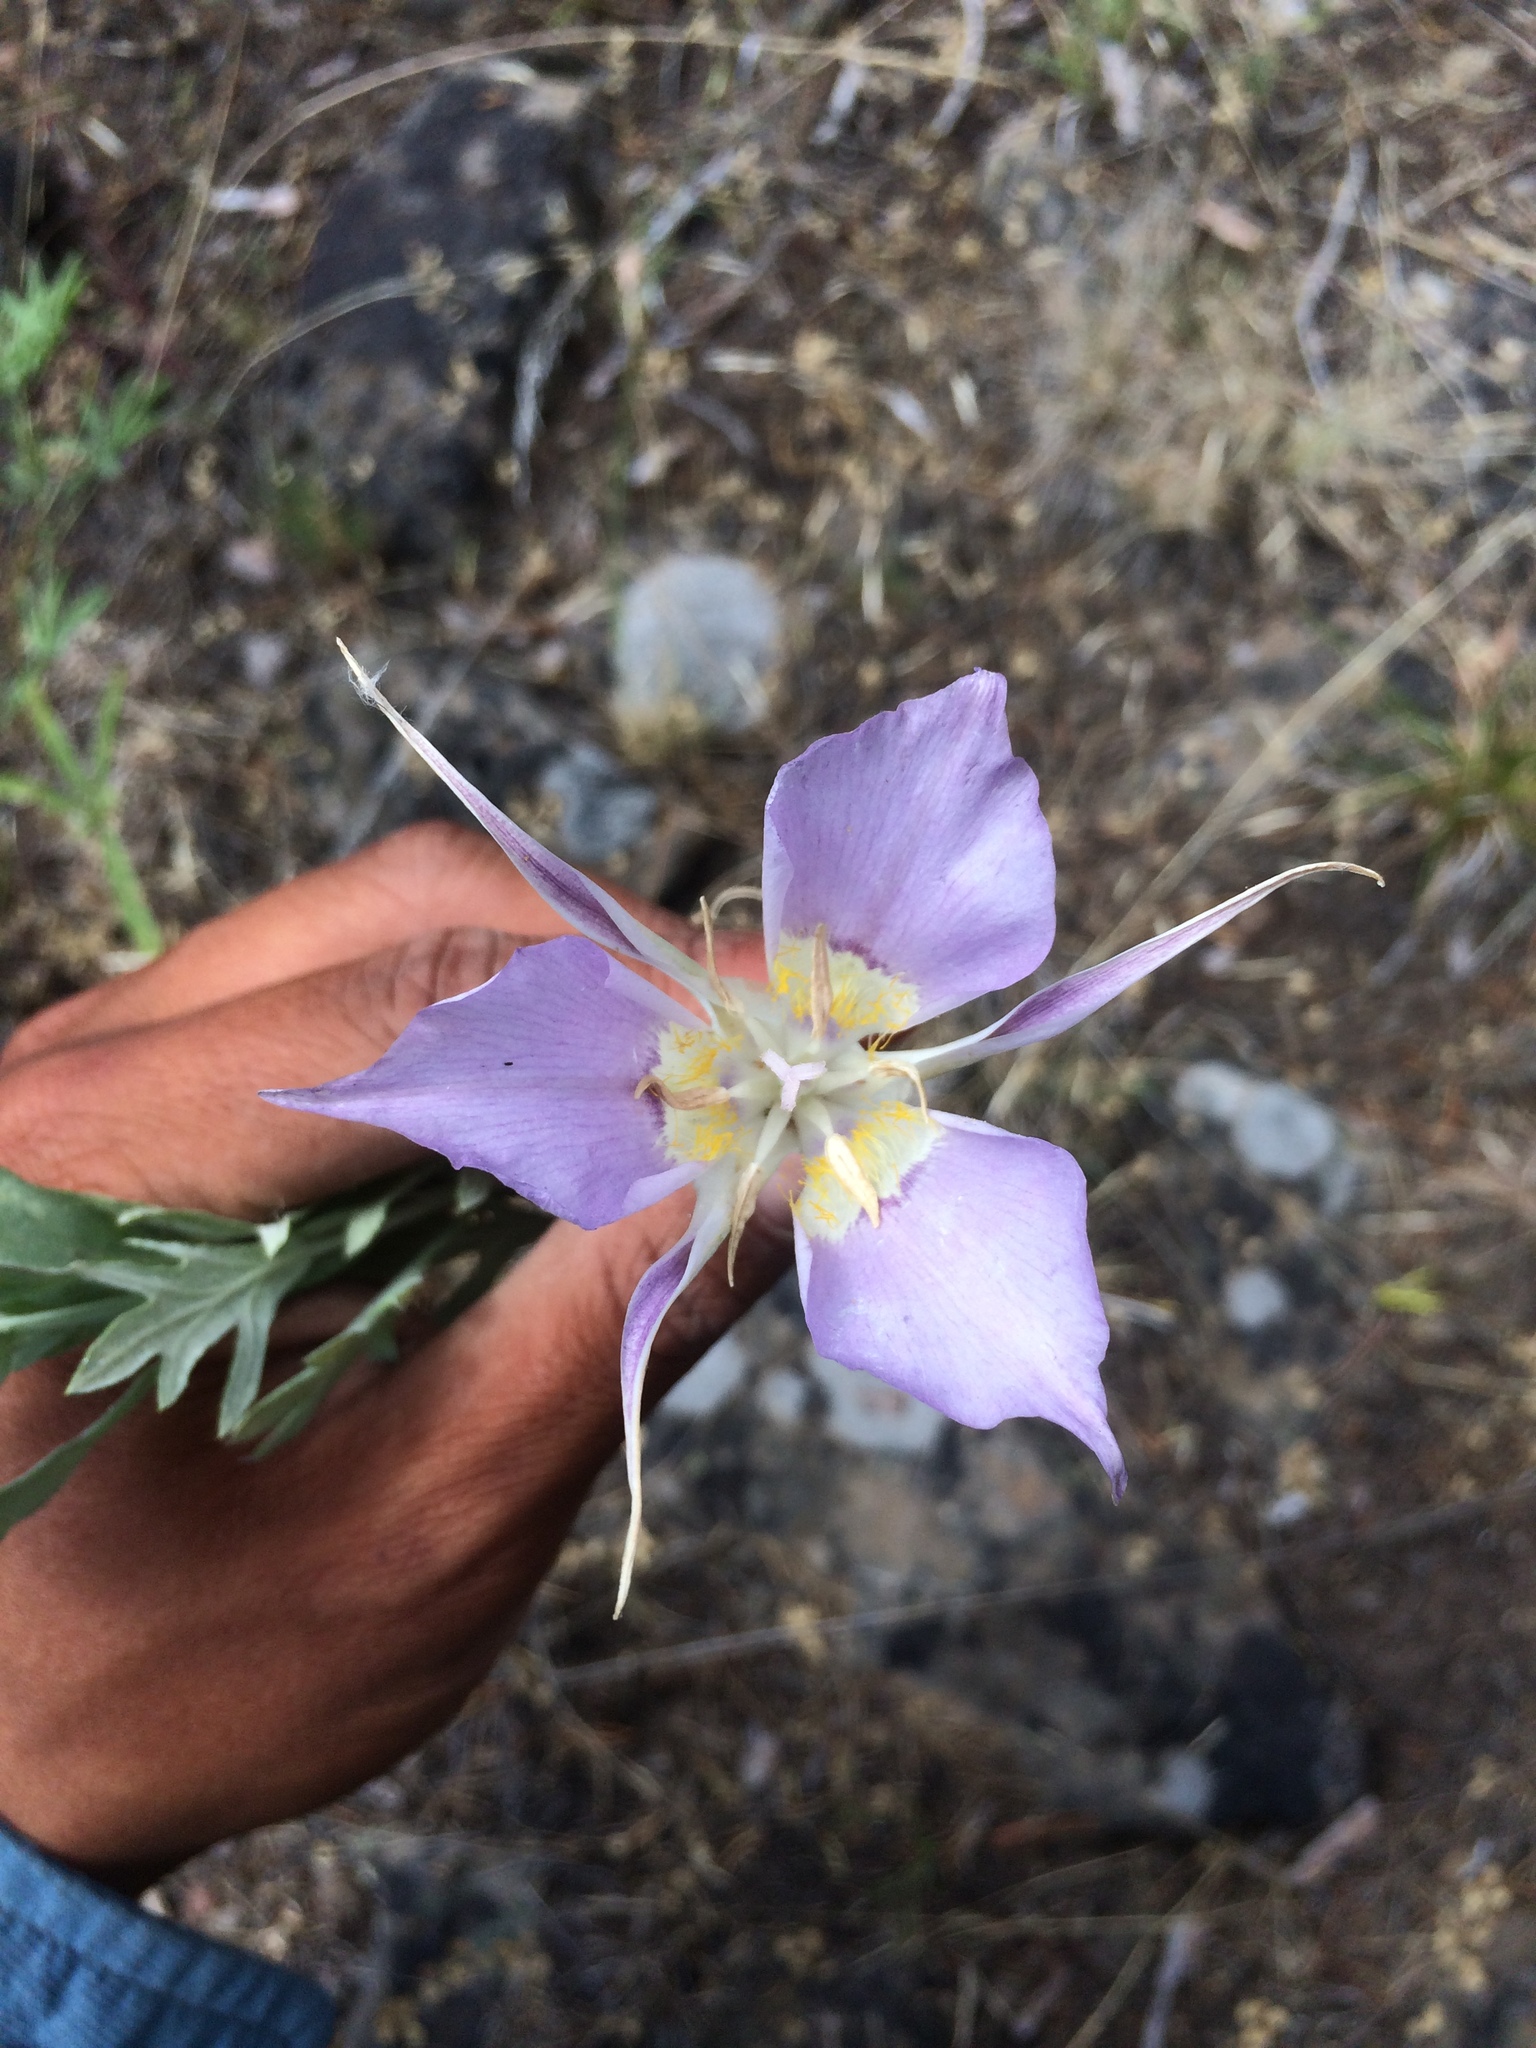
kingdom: Plantae
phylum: Tracheophyta
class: Liliopsida
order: Liliales
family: Liliaceae
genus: Calochortus
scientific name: Calochortus macrocarpus
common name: Green-band mariposa lily
